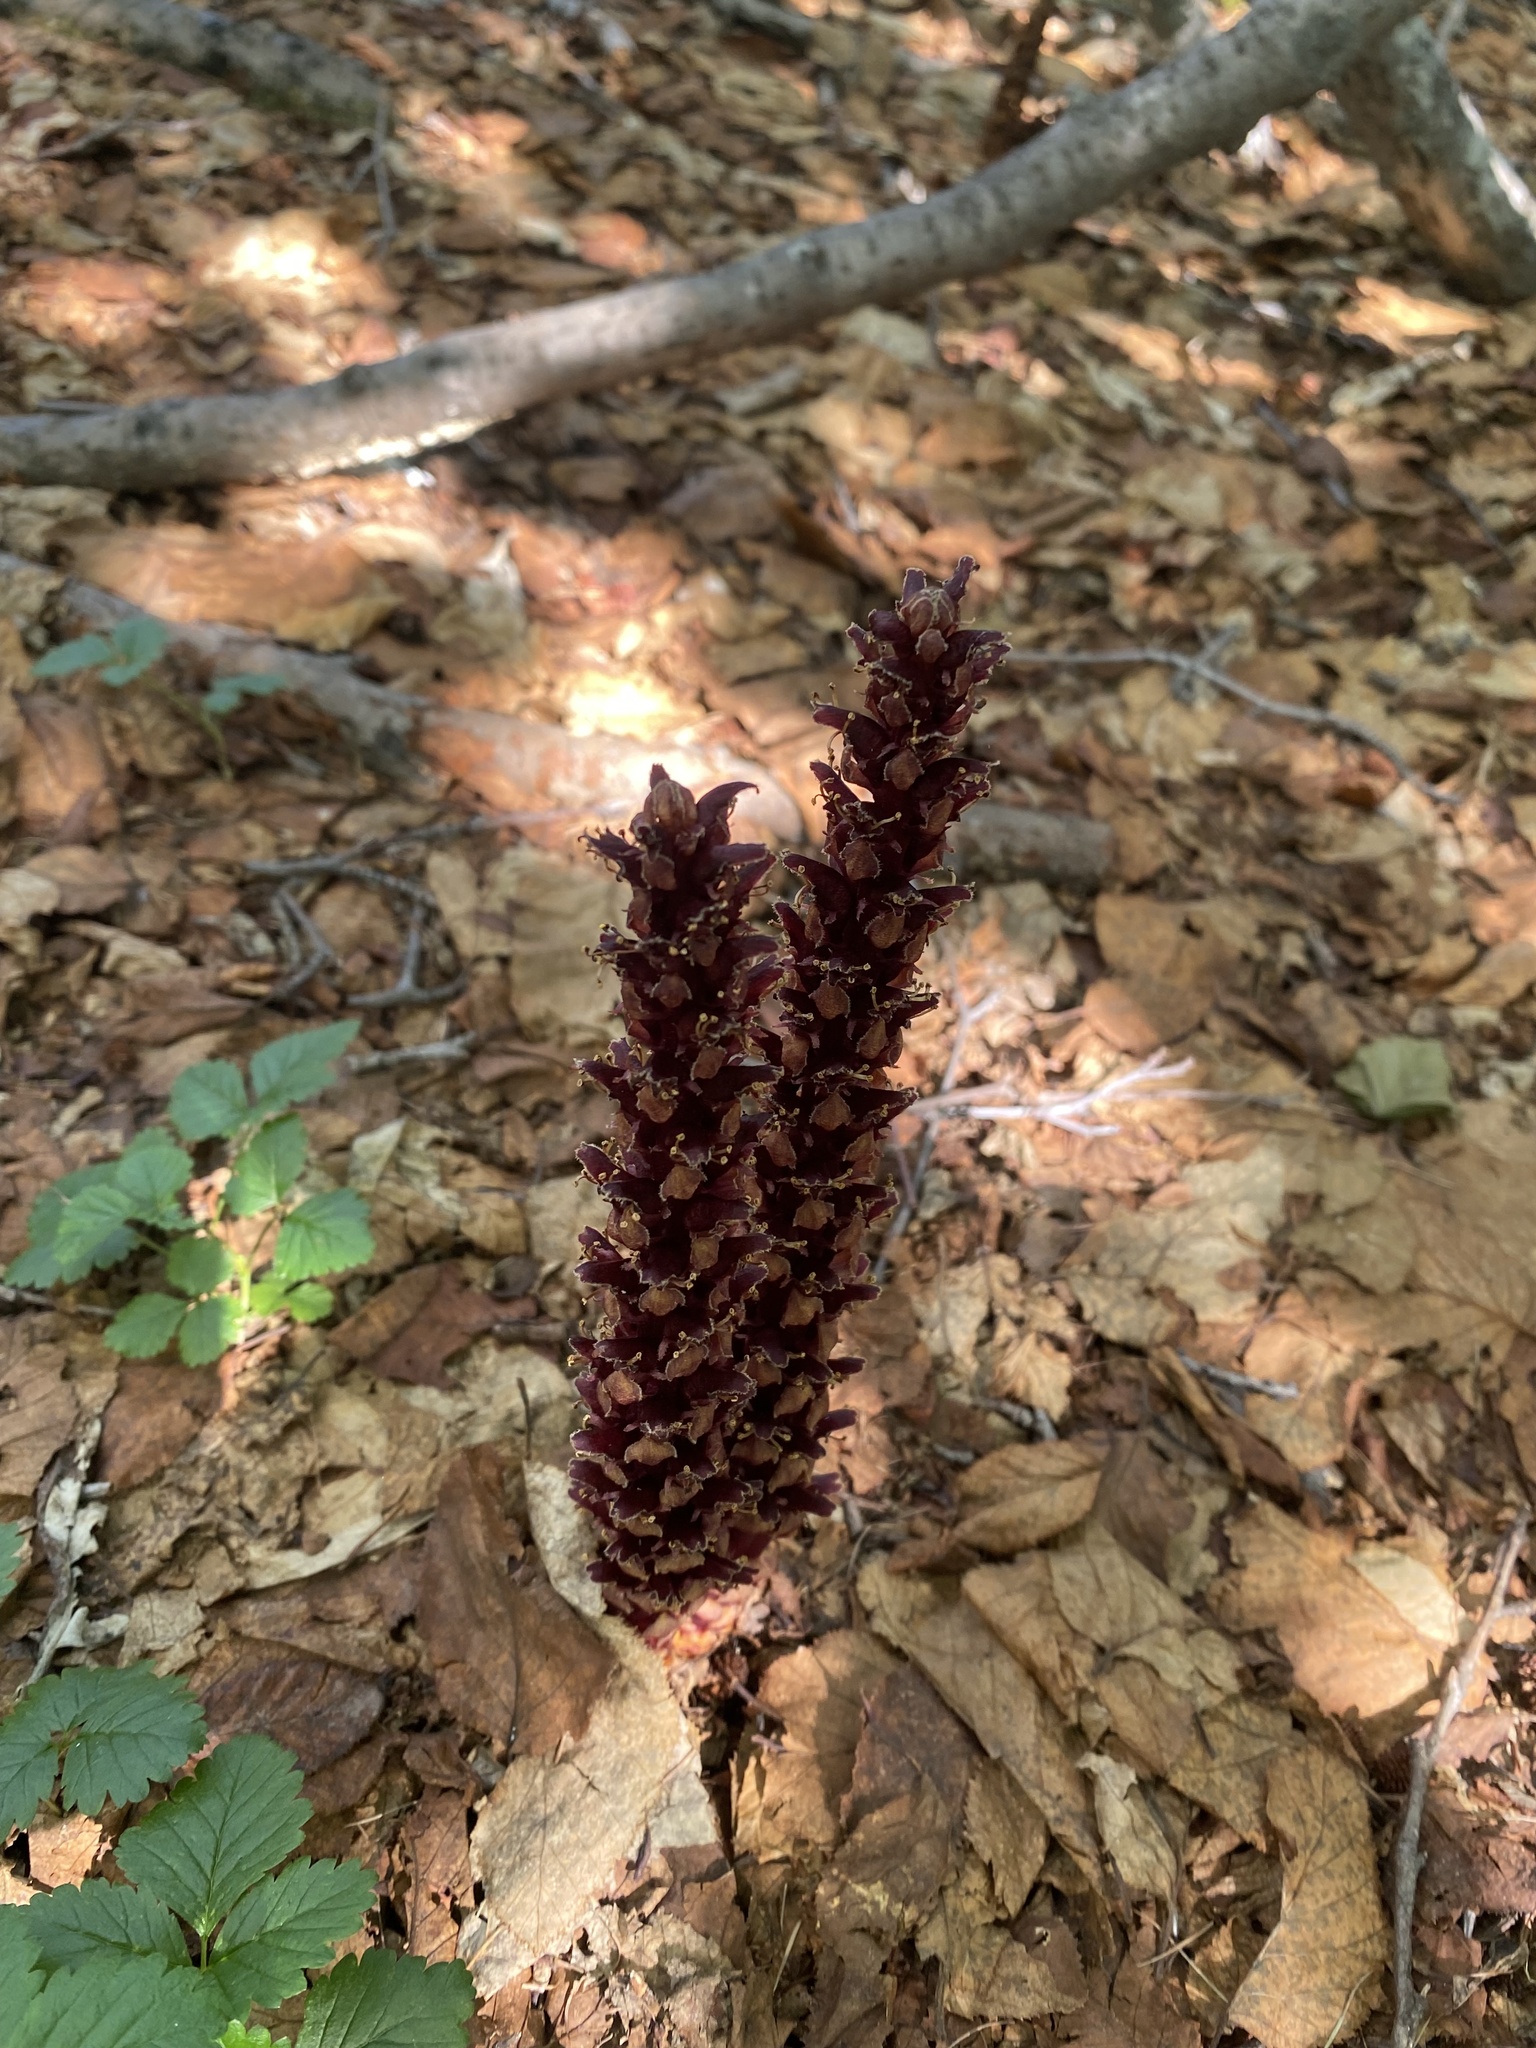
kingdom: Plantae
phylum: Tracheophyta
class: Magnoliopsida
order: Lamiales
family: Orobanchaceae
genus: Boschniakia
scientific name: Boschniakia rossica
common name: Poque
